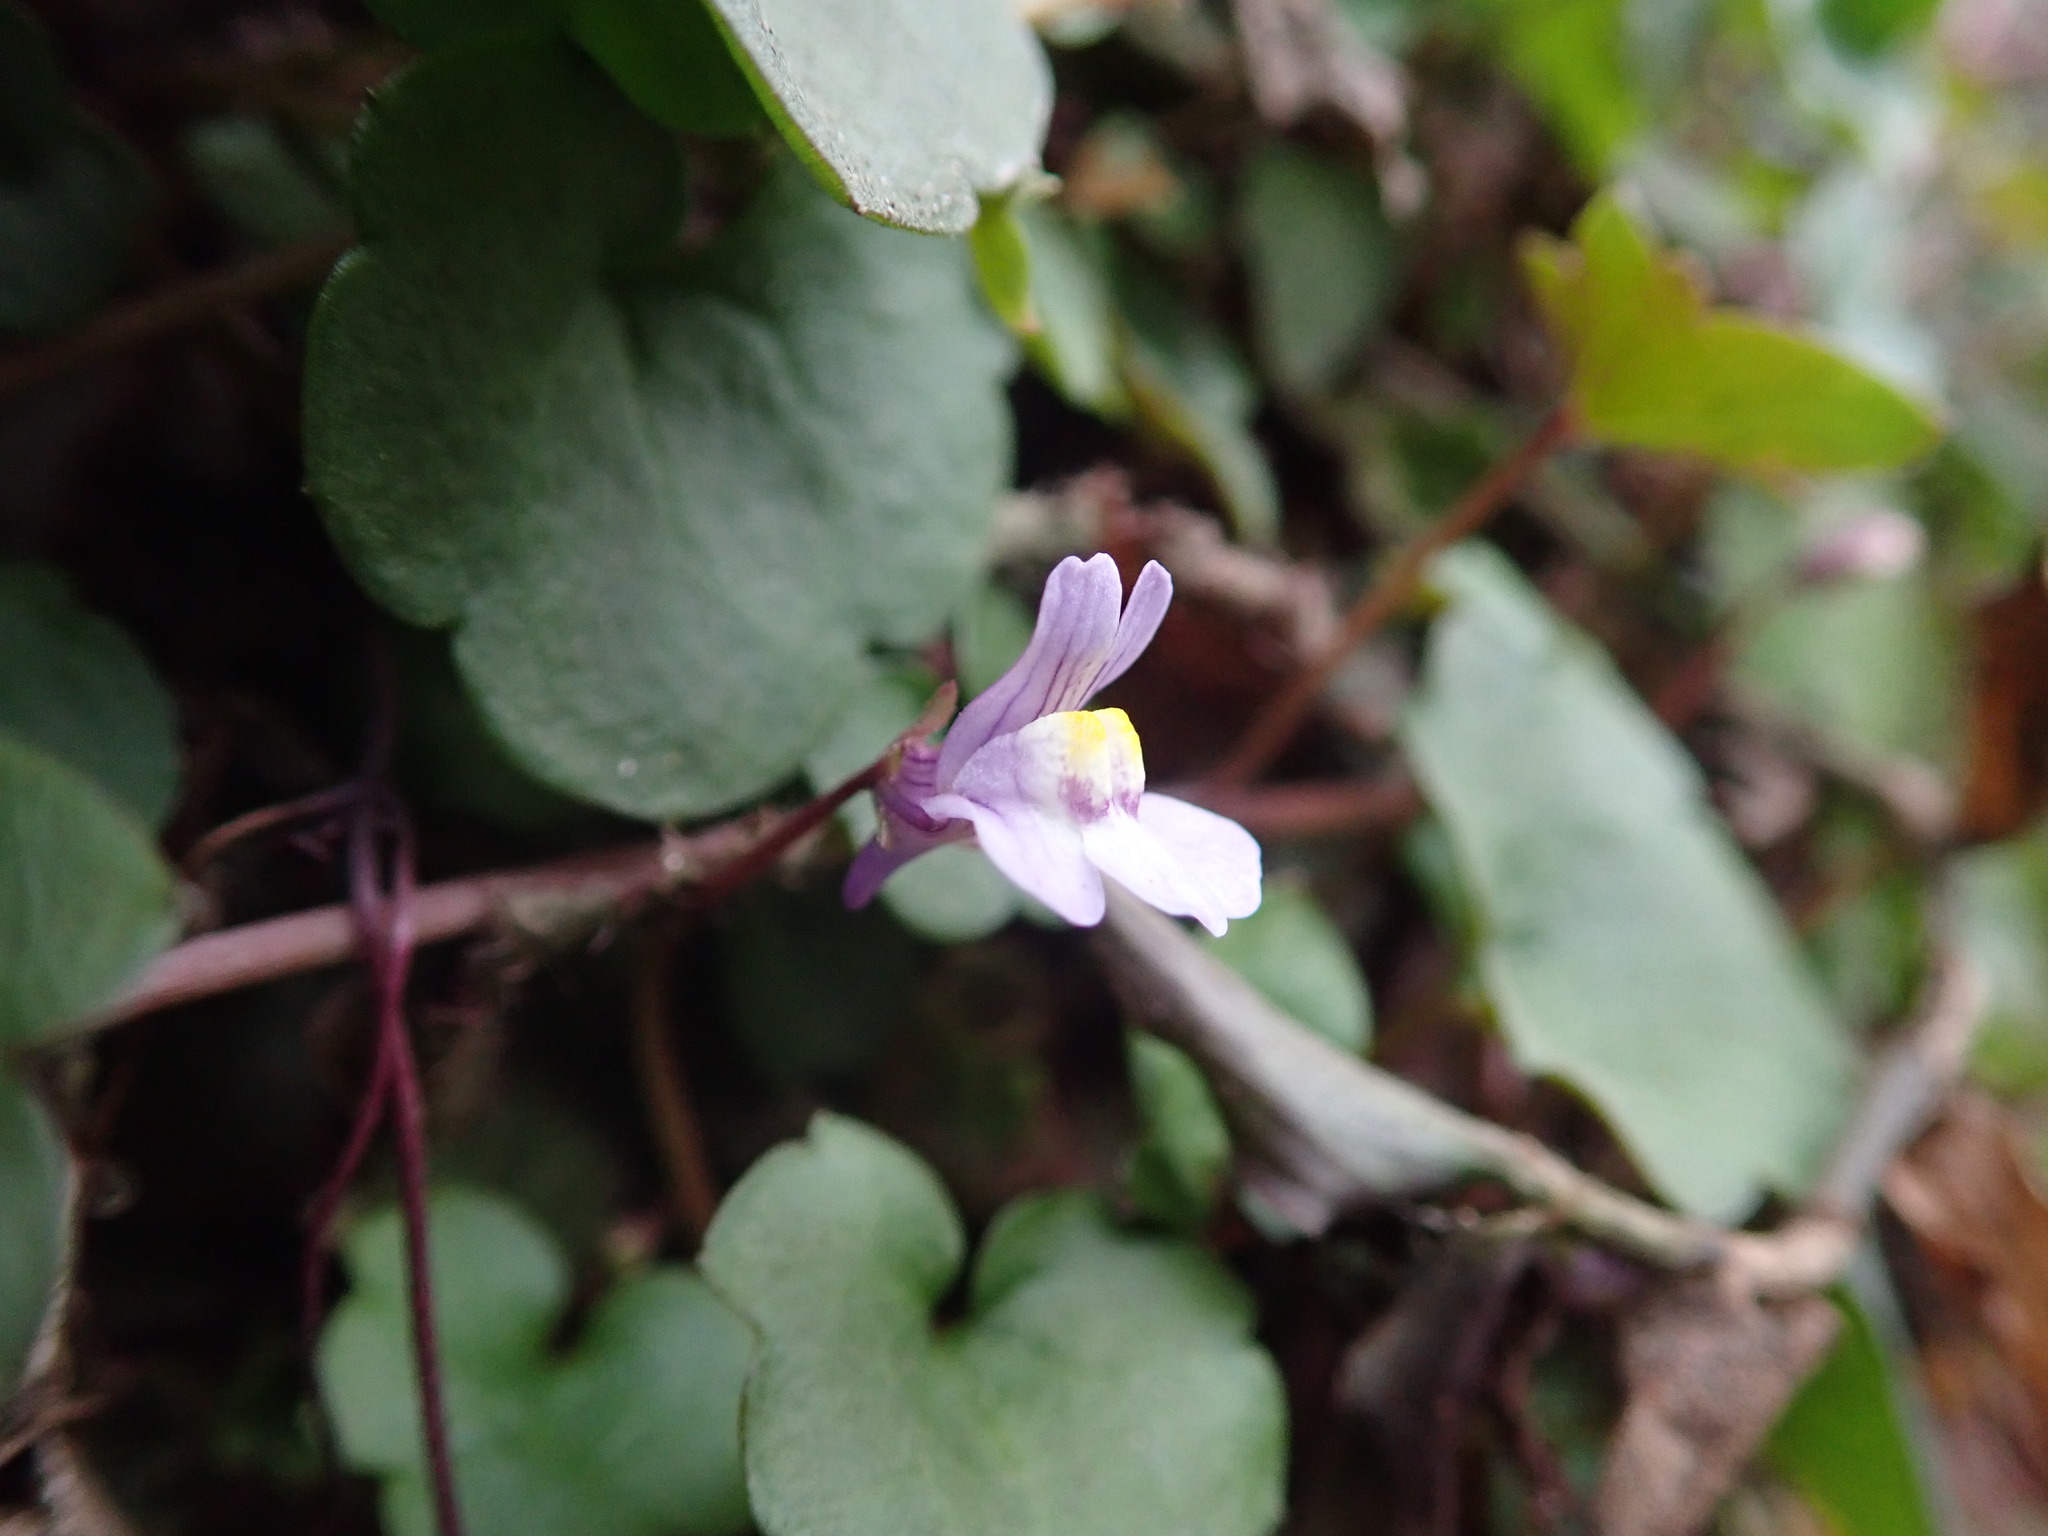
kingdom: Plantae
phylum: Tracheophyta
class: Magnoliopsida
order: Lamiales
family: Plantaginaceae
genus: Cymbalaria
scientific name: Cymbalaria muralis
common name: Ivy-leaved toadflax
